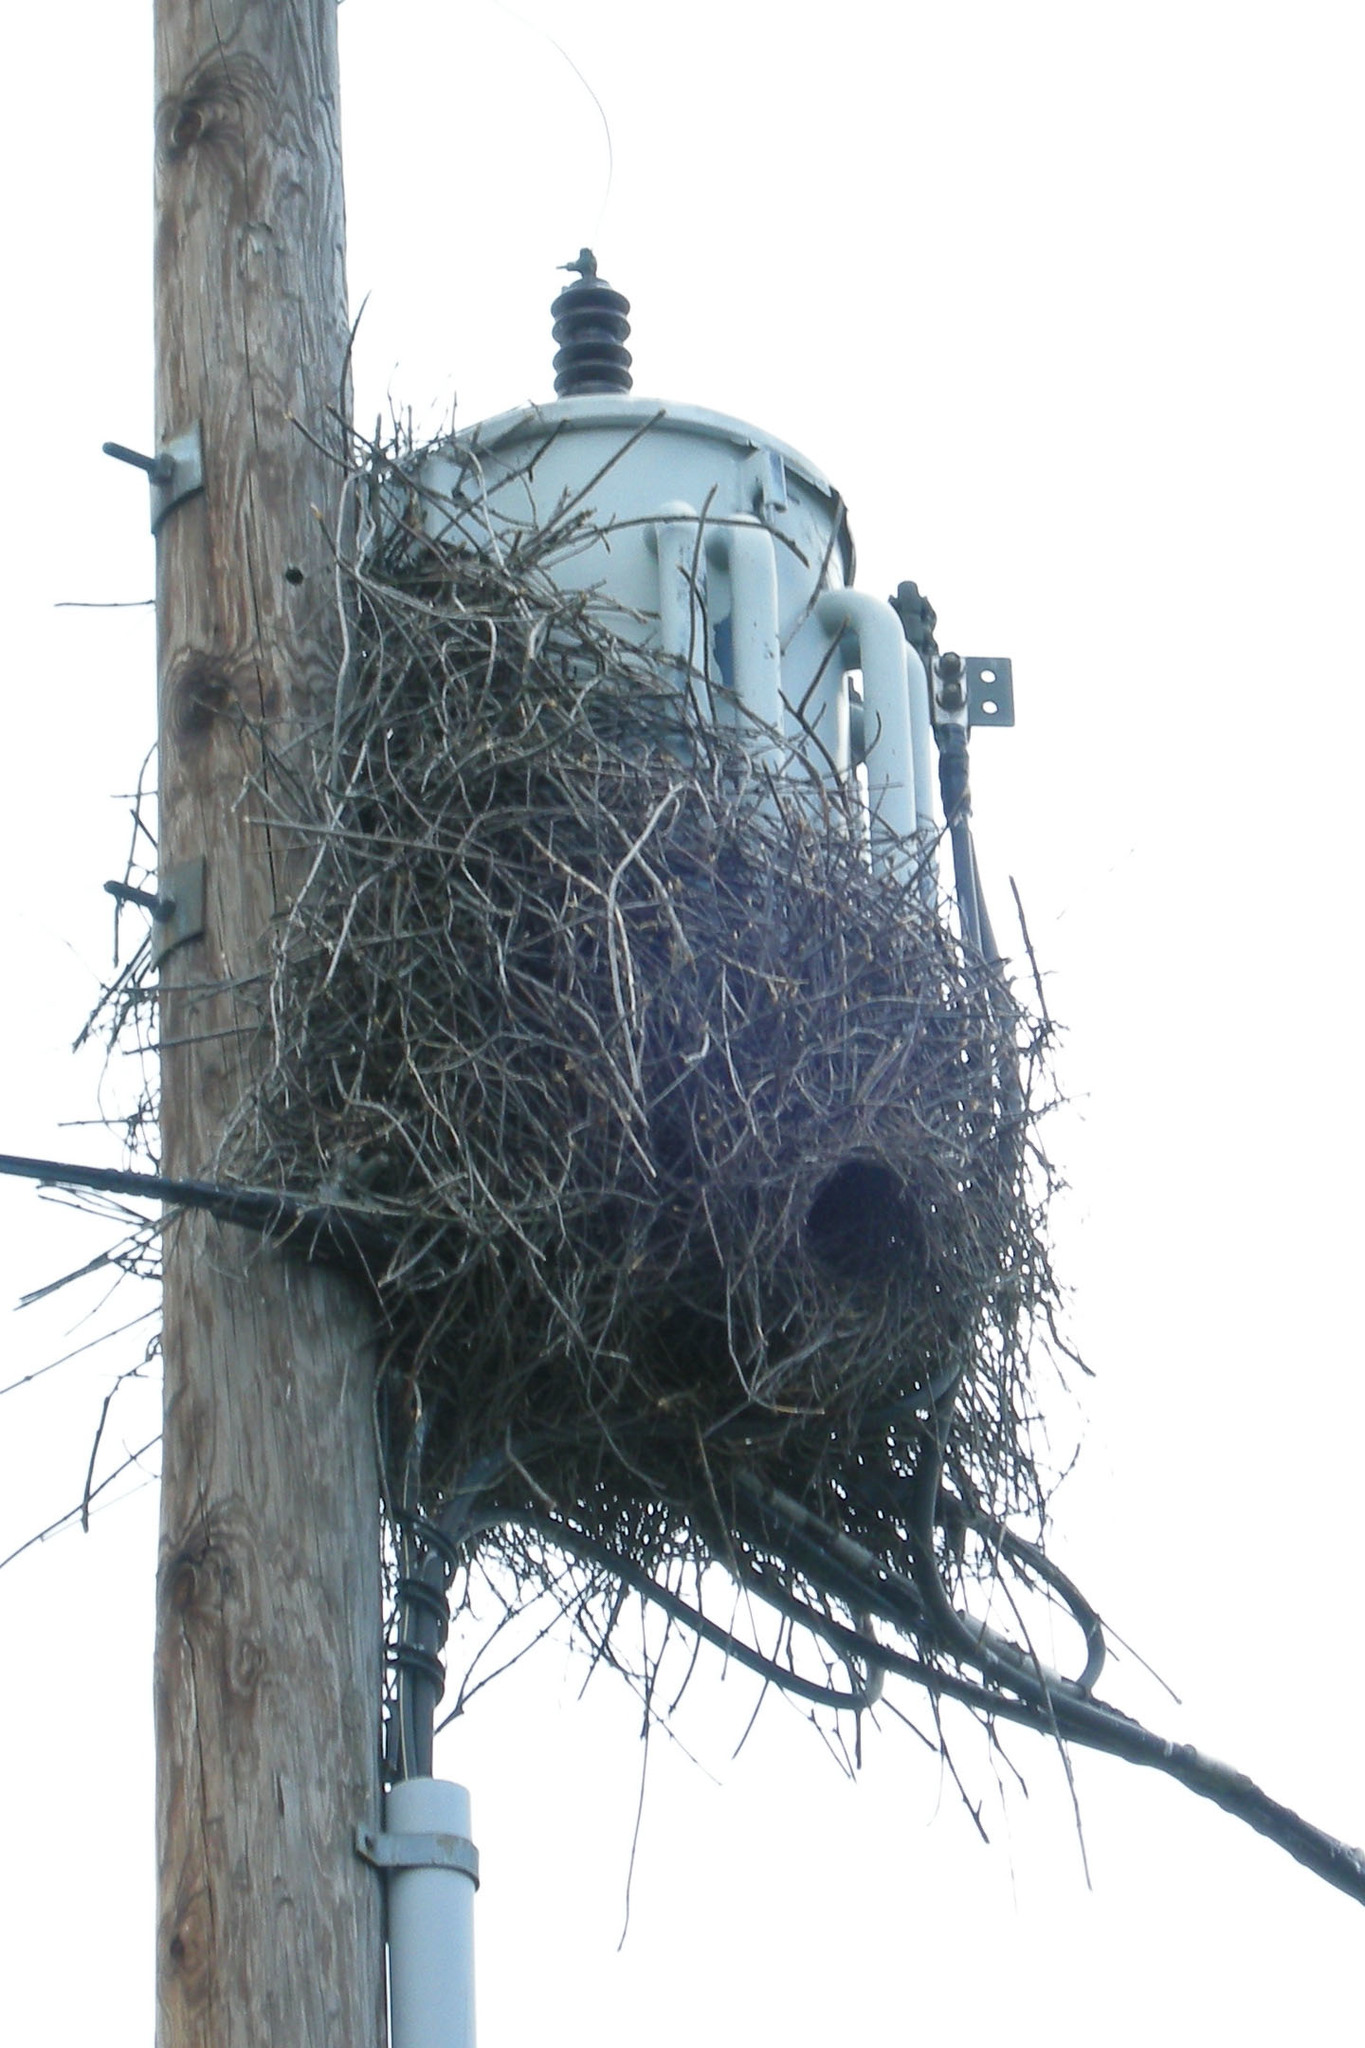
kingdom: Animalia
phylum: Chordata
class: Aves
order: Psittaciformes
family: Psittacidae
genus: Myiopsitta
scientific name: Myiopsitta monachus
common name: Monk parakeet
